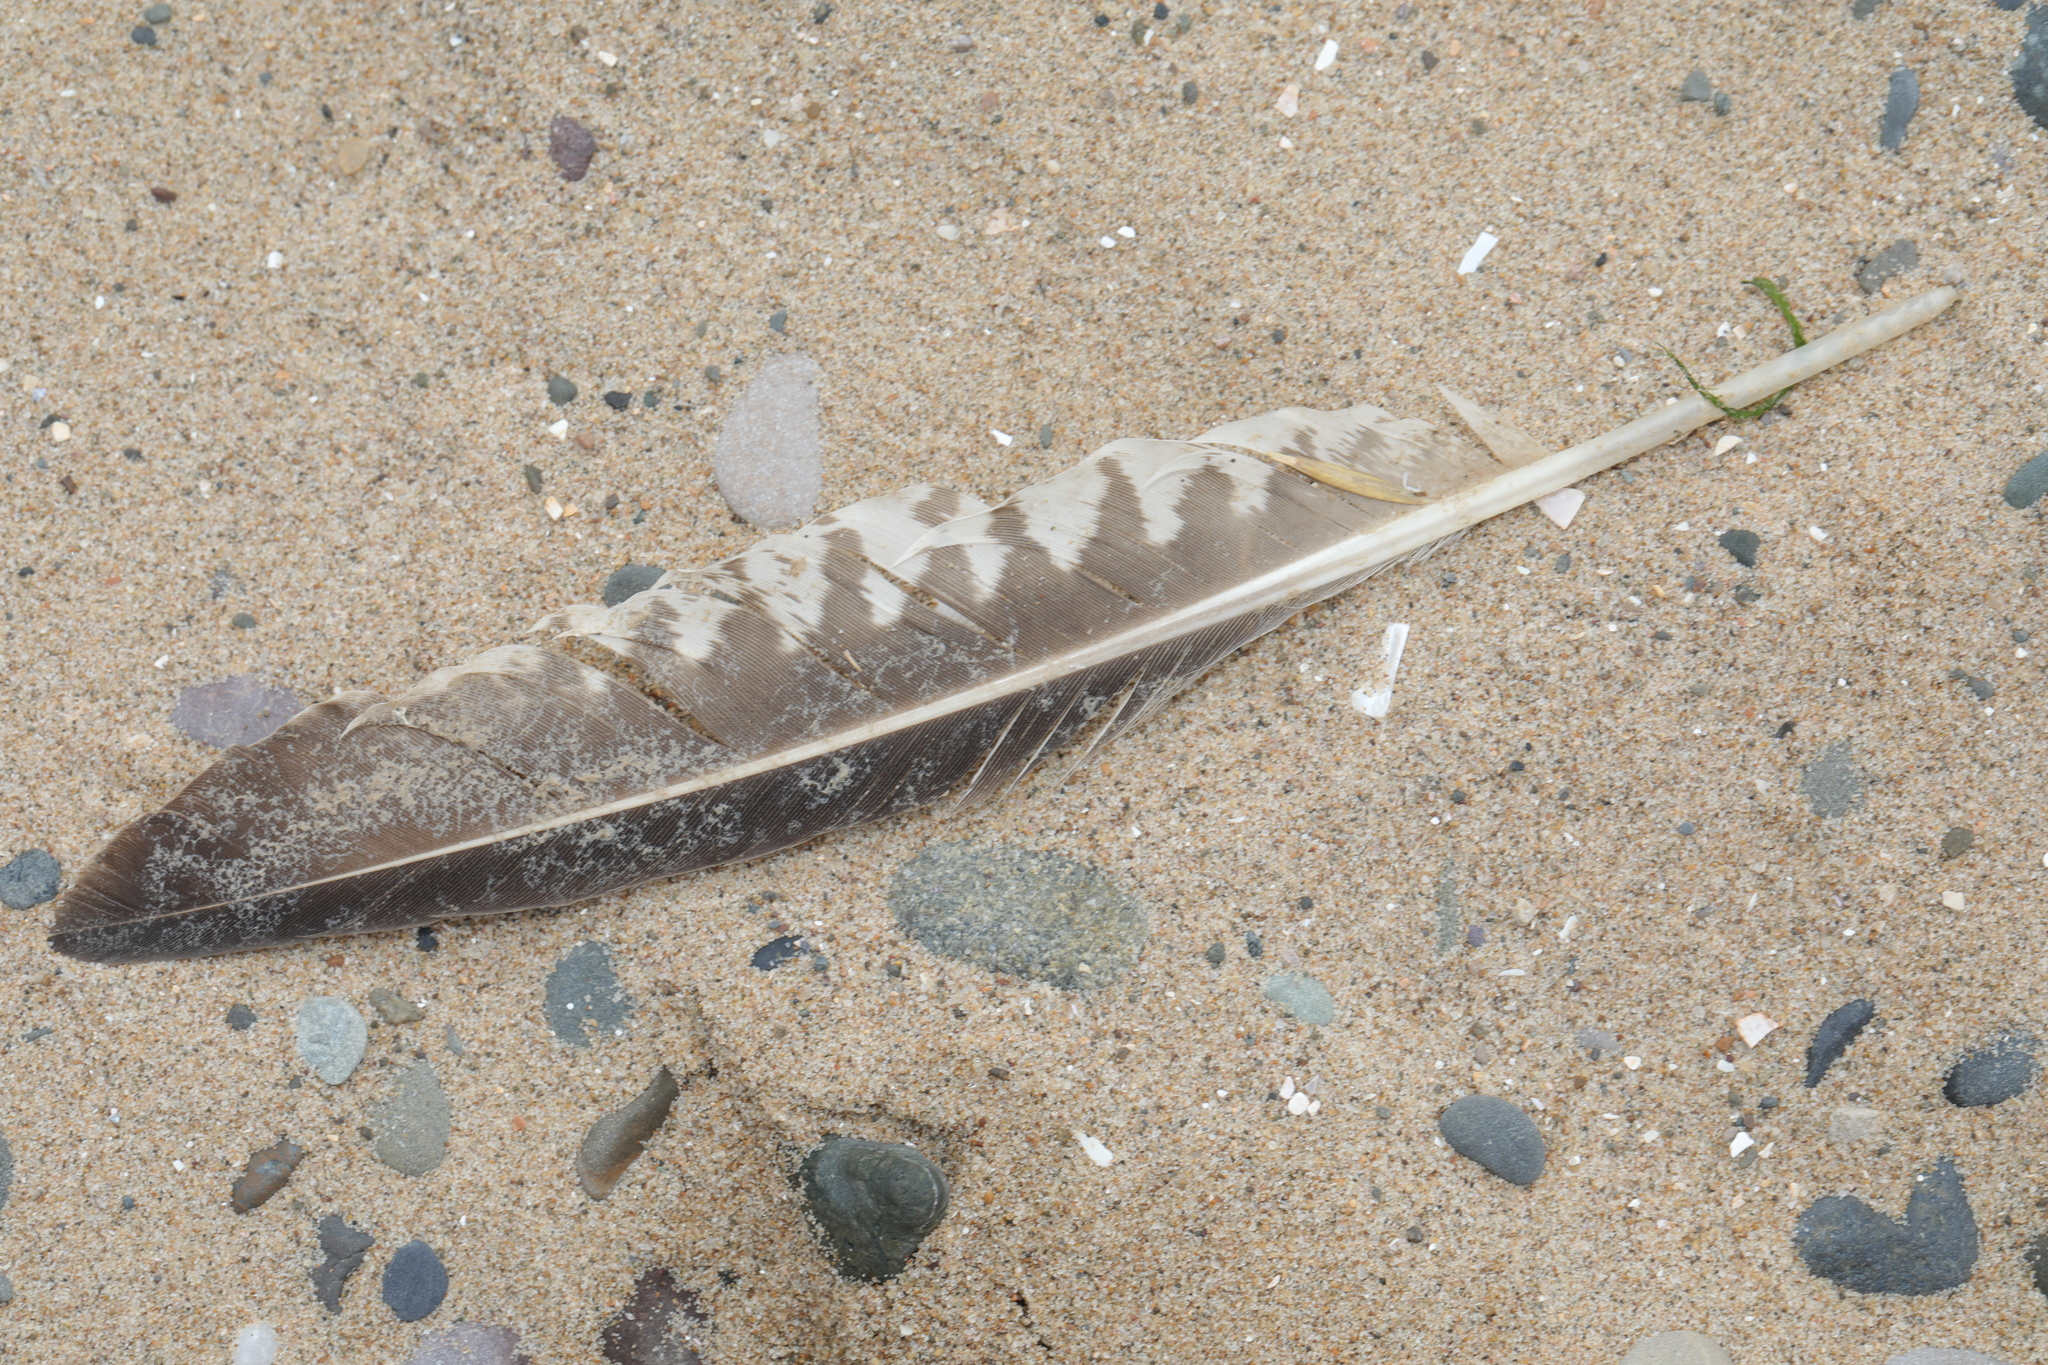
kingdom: Animalia
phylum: Chordata
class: Aves
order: Charadriiformes
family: Scolopacidae
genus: Numenius
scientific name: Numenius arquata
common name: Eurasian curlew
